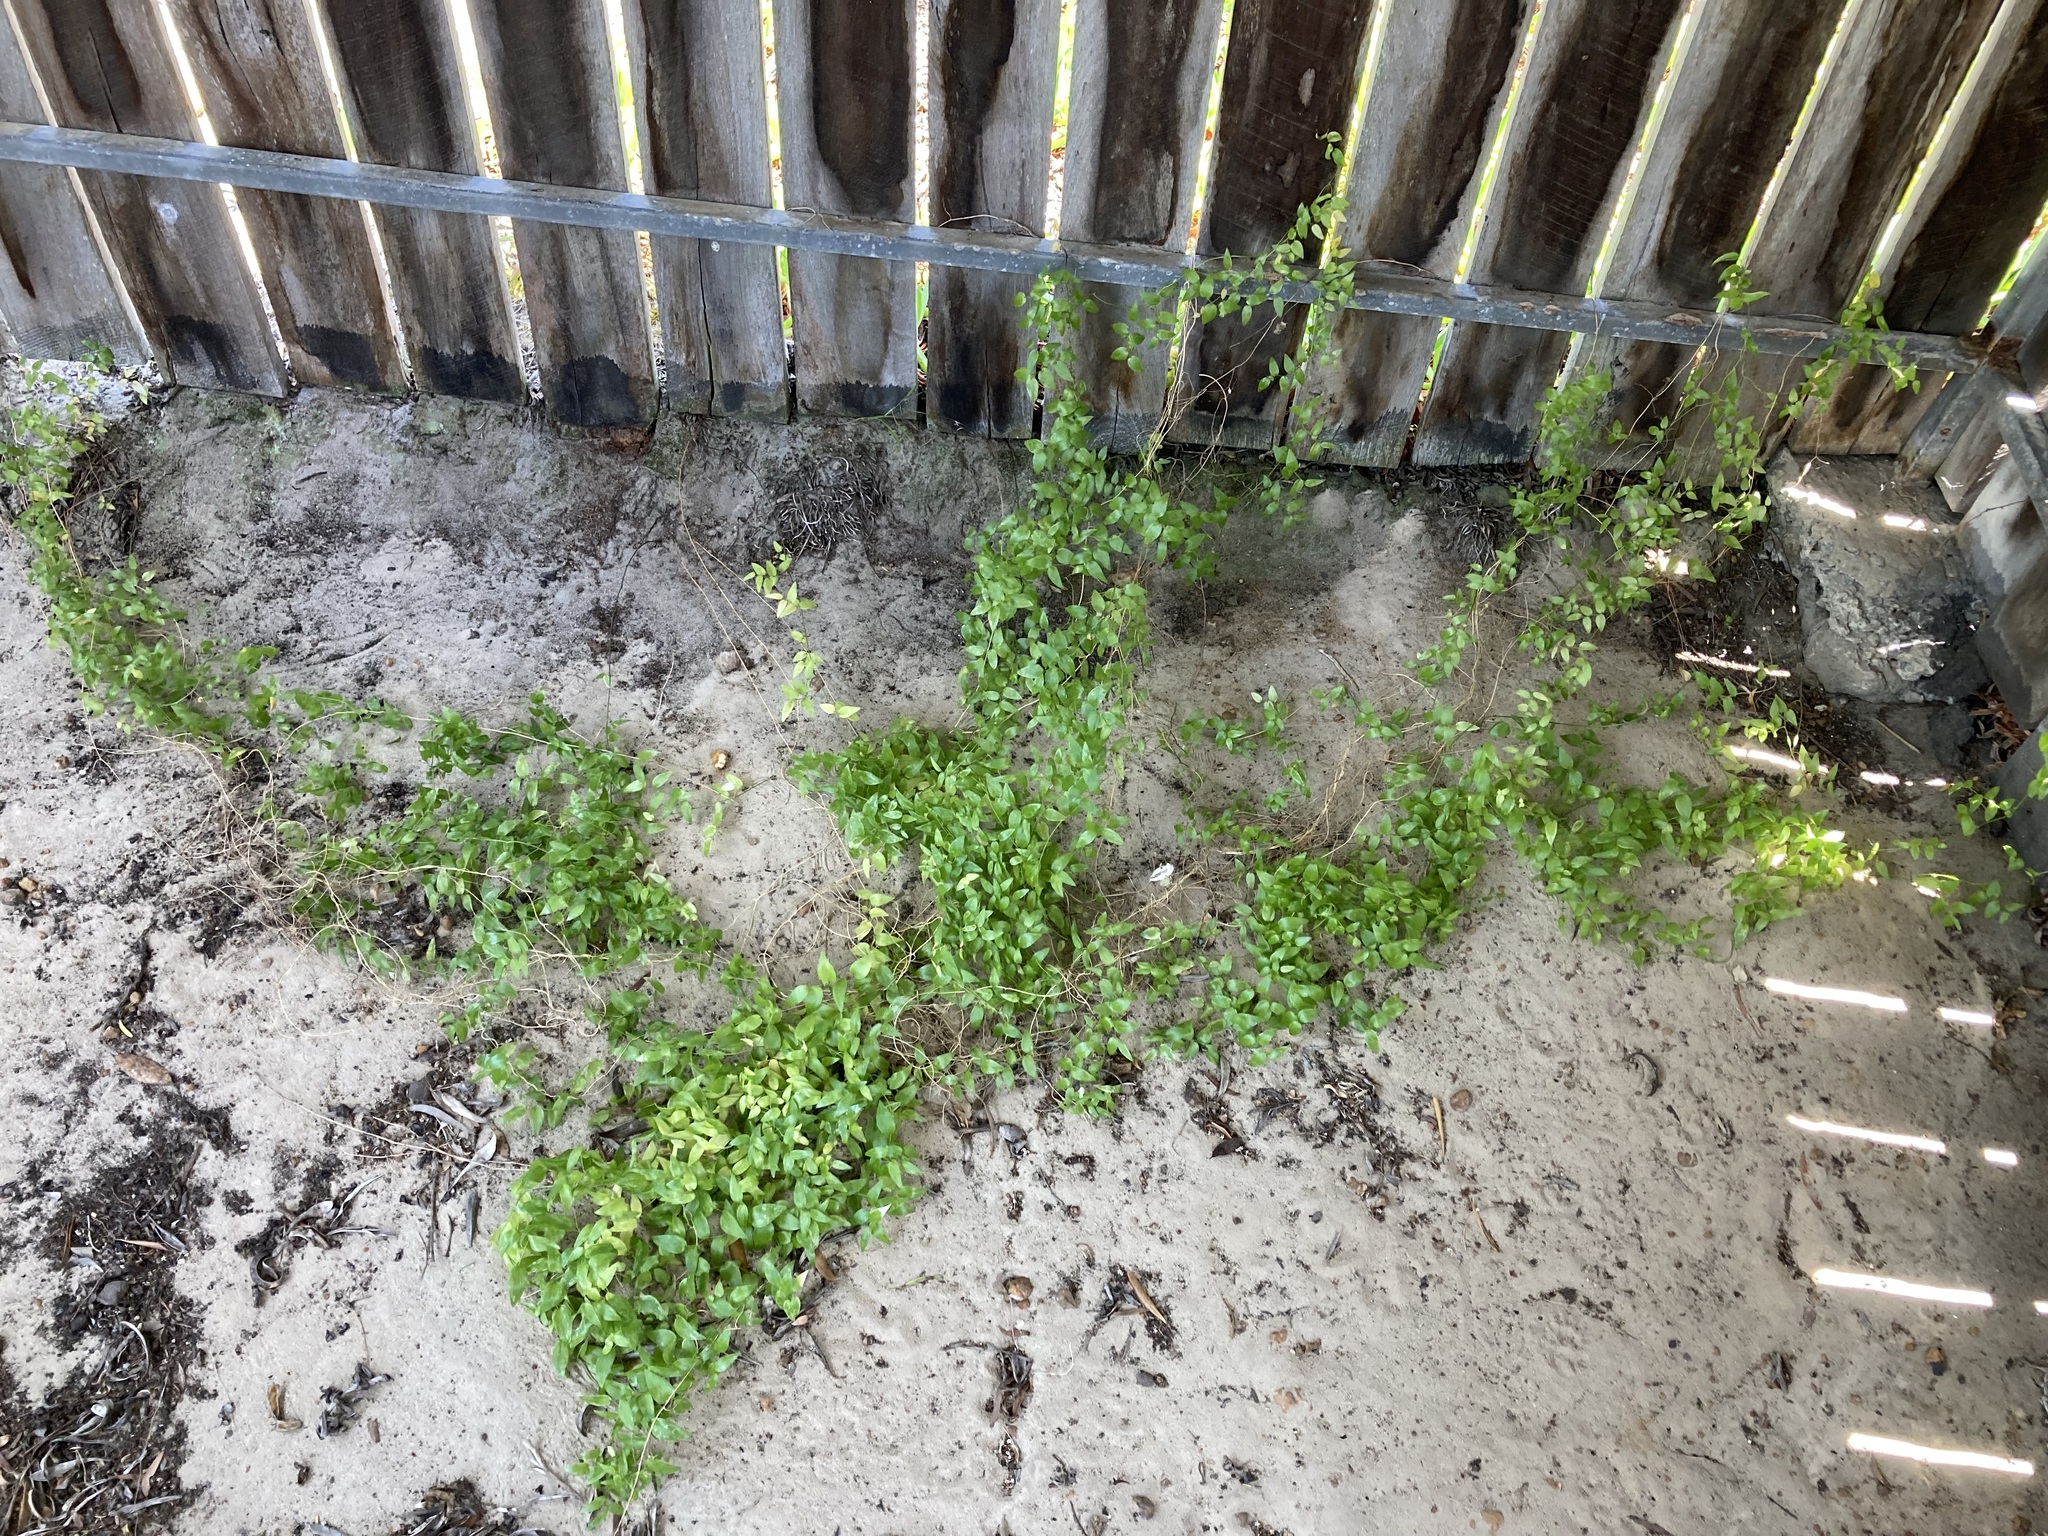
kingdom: Plantae
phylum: Tracheophyta
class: Liliopsida
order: Asparagales
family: Asparagaceae
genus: Asparagus
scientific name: Asparagus asparagoides
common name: African asparagus fern
